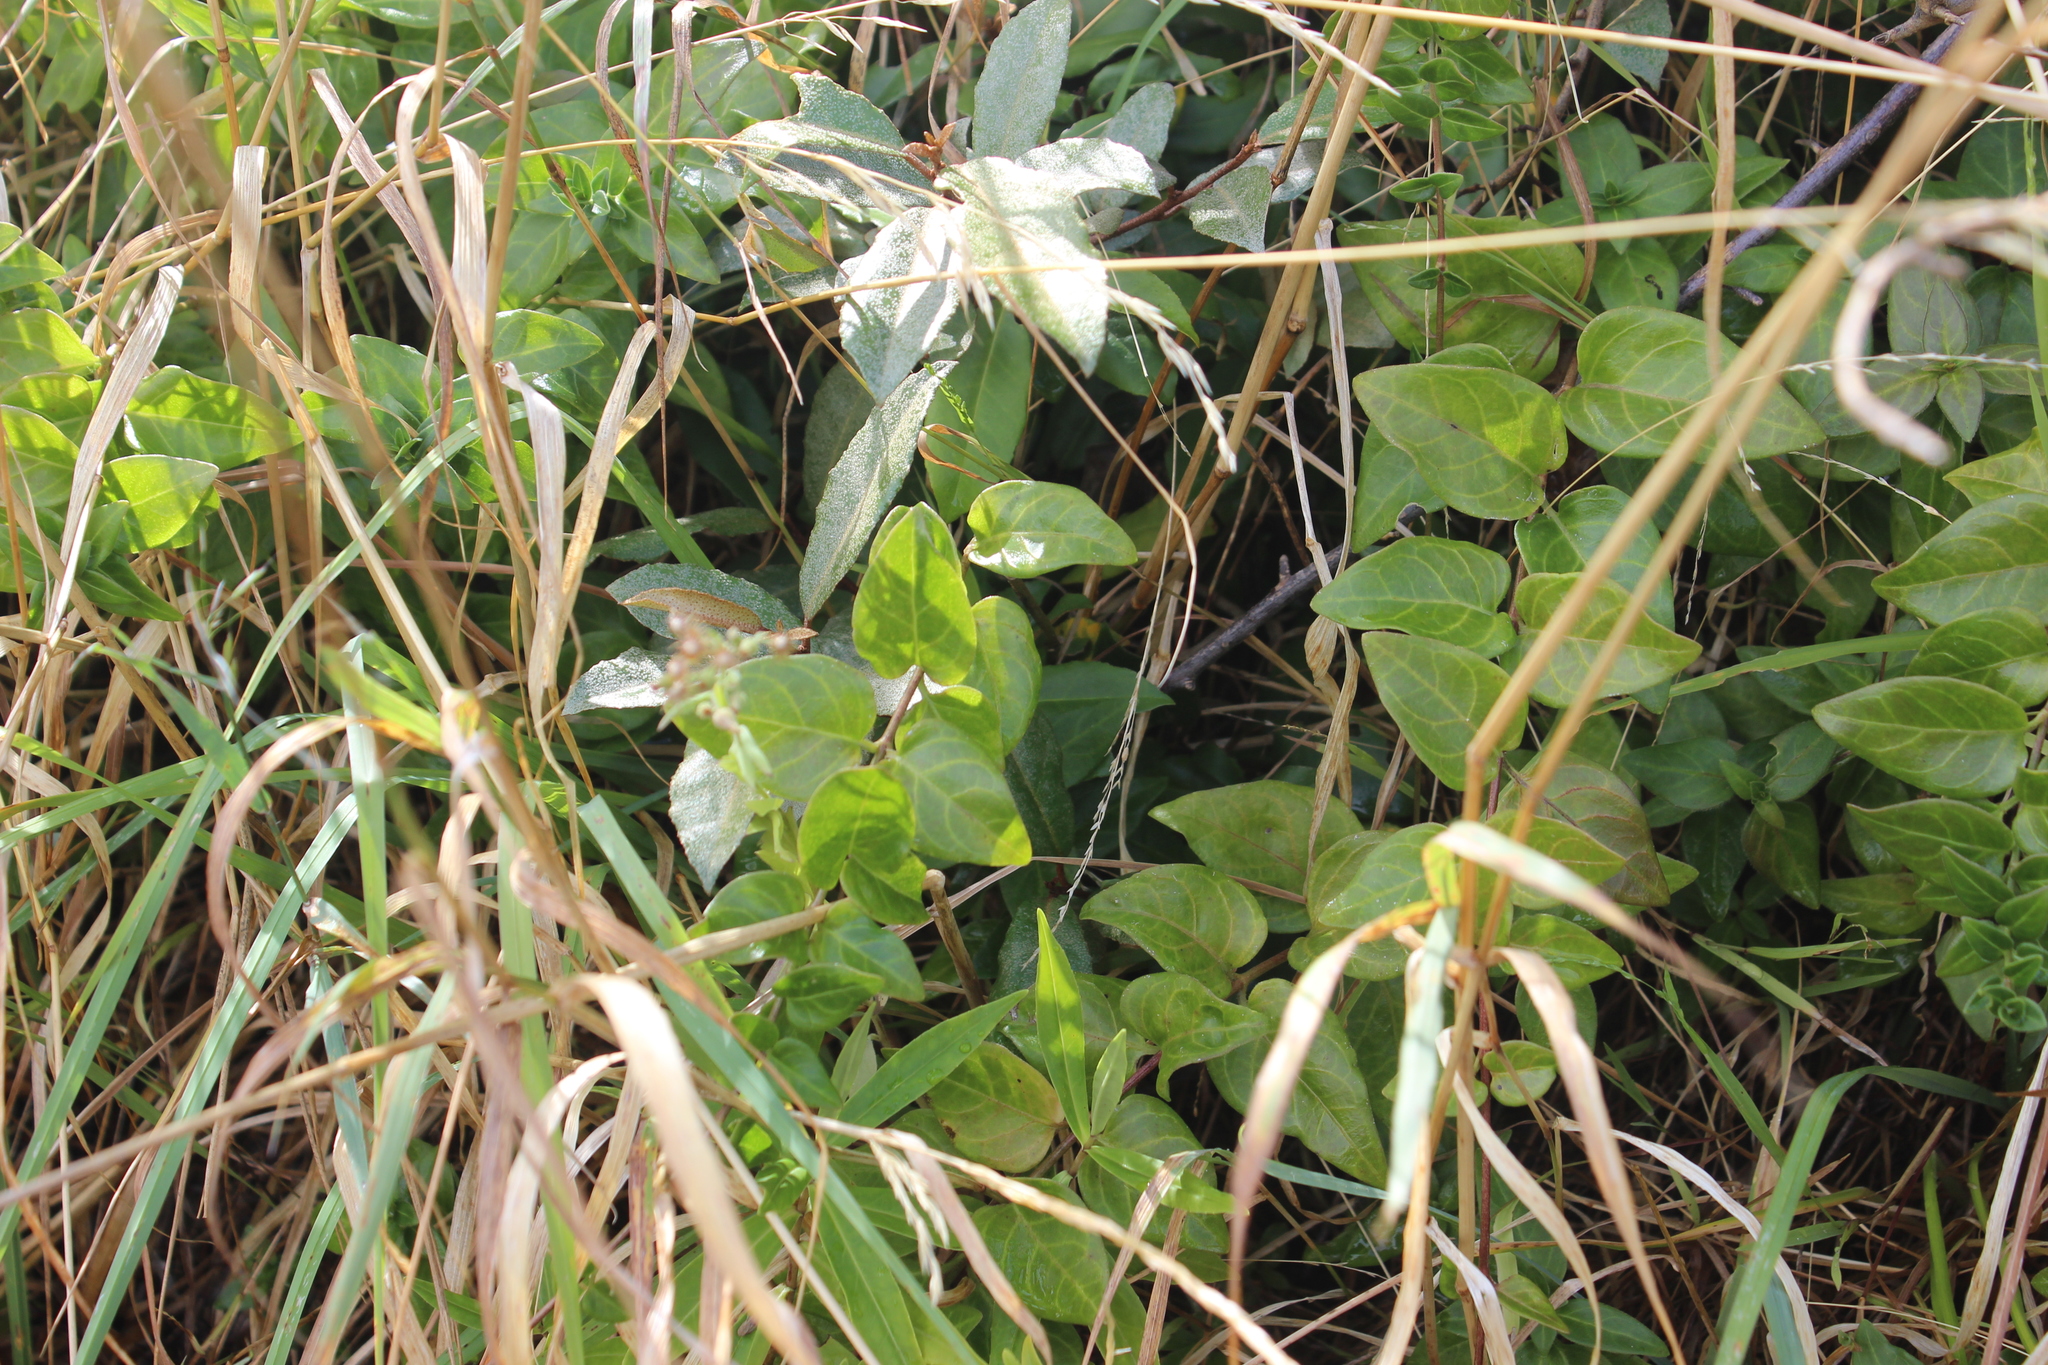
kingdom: Plantae
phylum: Tracheophyta
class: Magnoliopsida
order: Gentianales
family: Apocynaceae
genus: Vinca
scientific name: Vinca major
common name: Greater periwinkle
